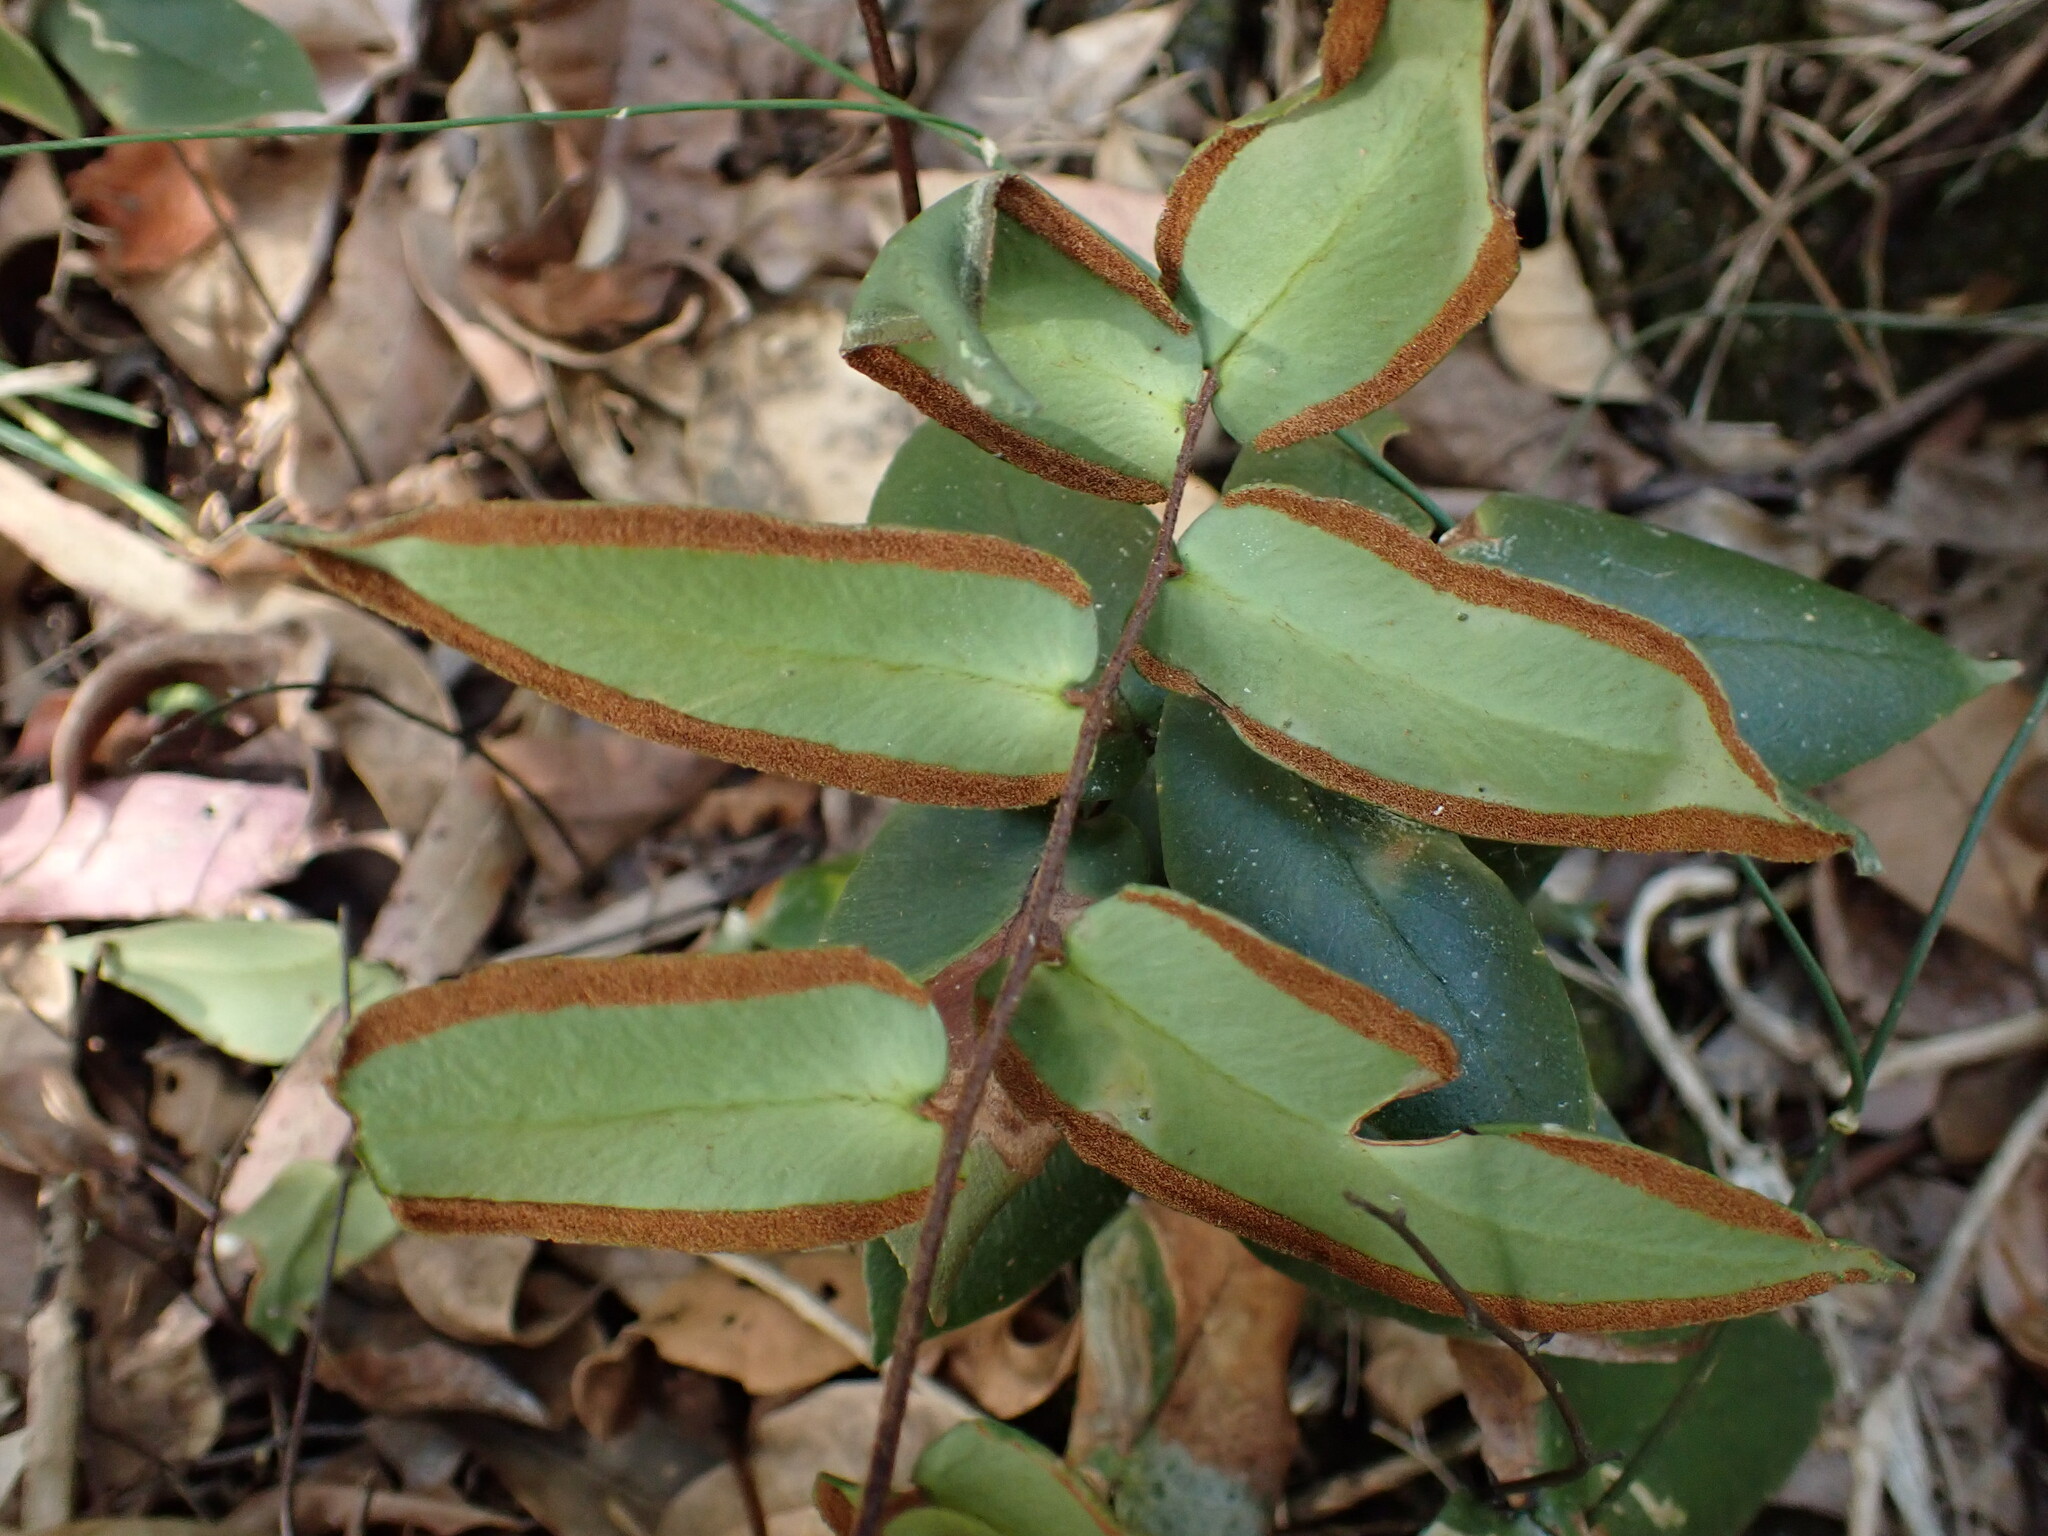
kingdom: Plantae
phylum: Tracheophyta
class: Polypodiopsida
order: Polypodiales
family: Pteridaceae
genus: Pellaea
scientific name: Pellaea paradoxa
